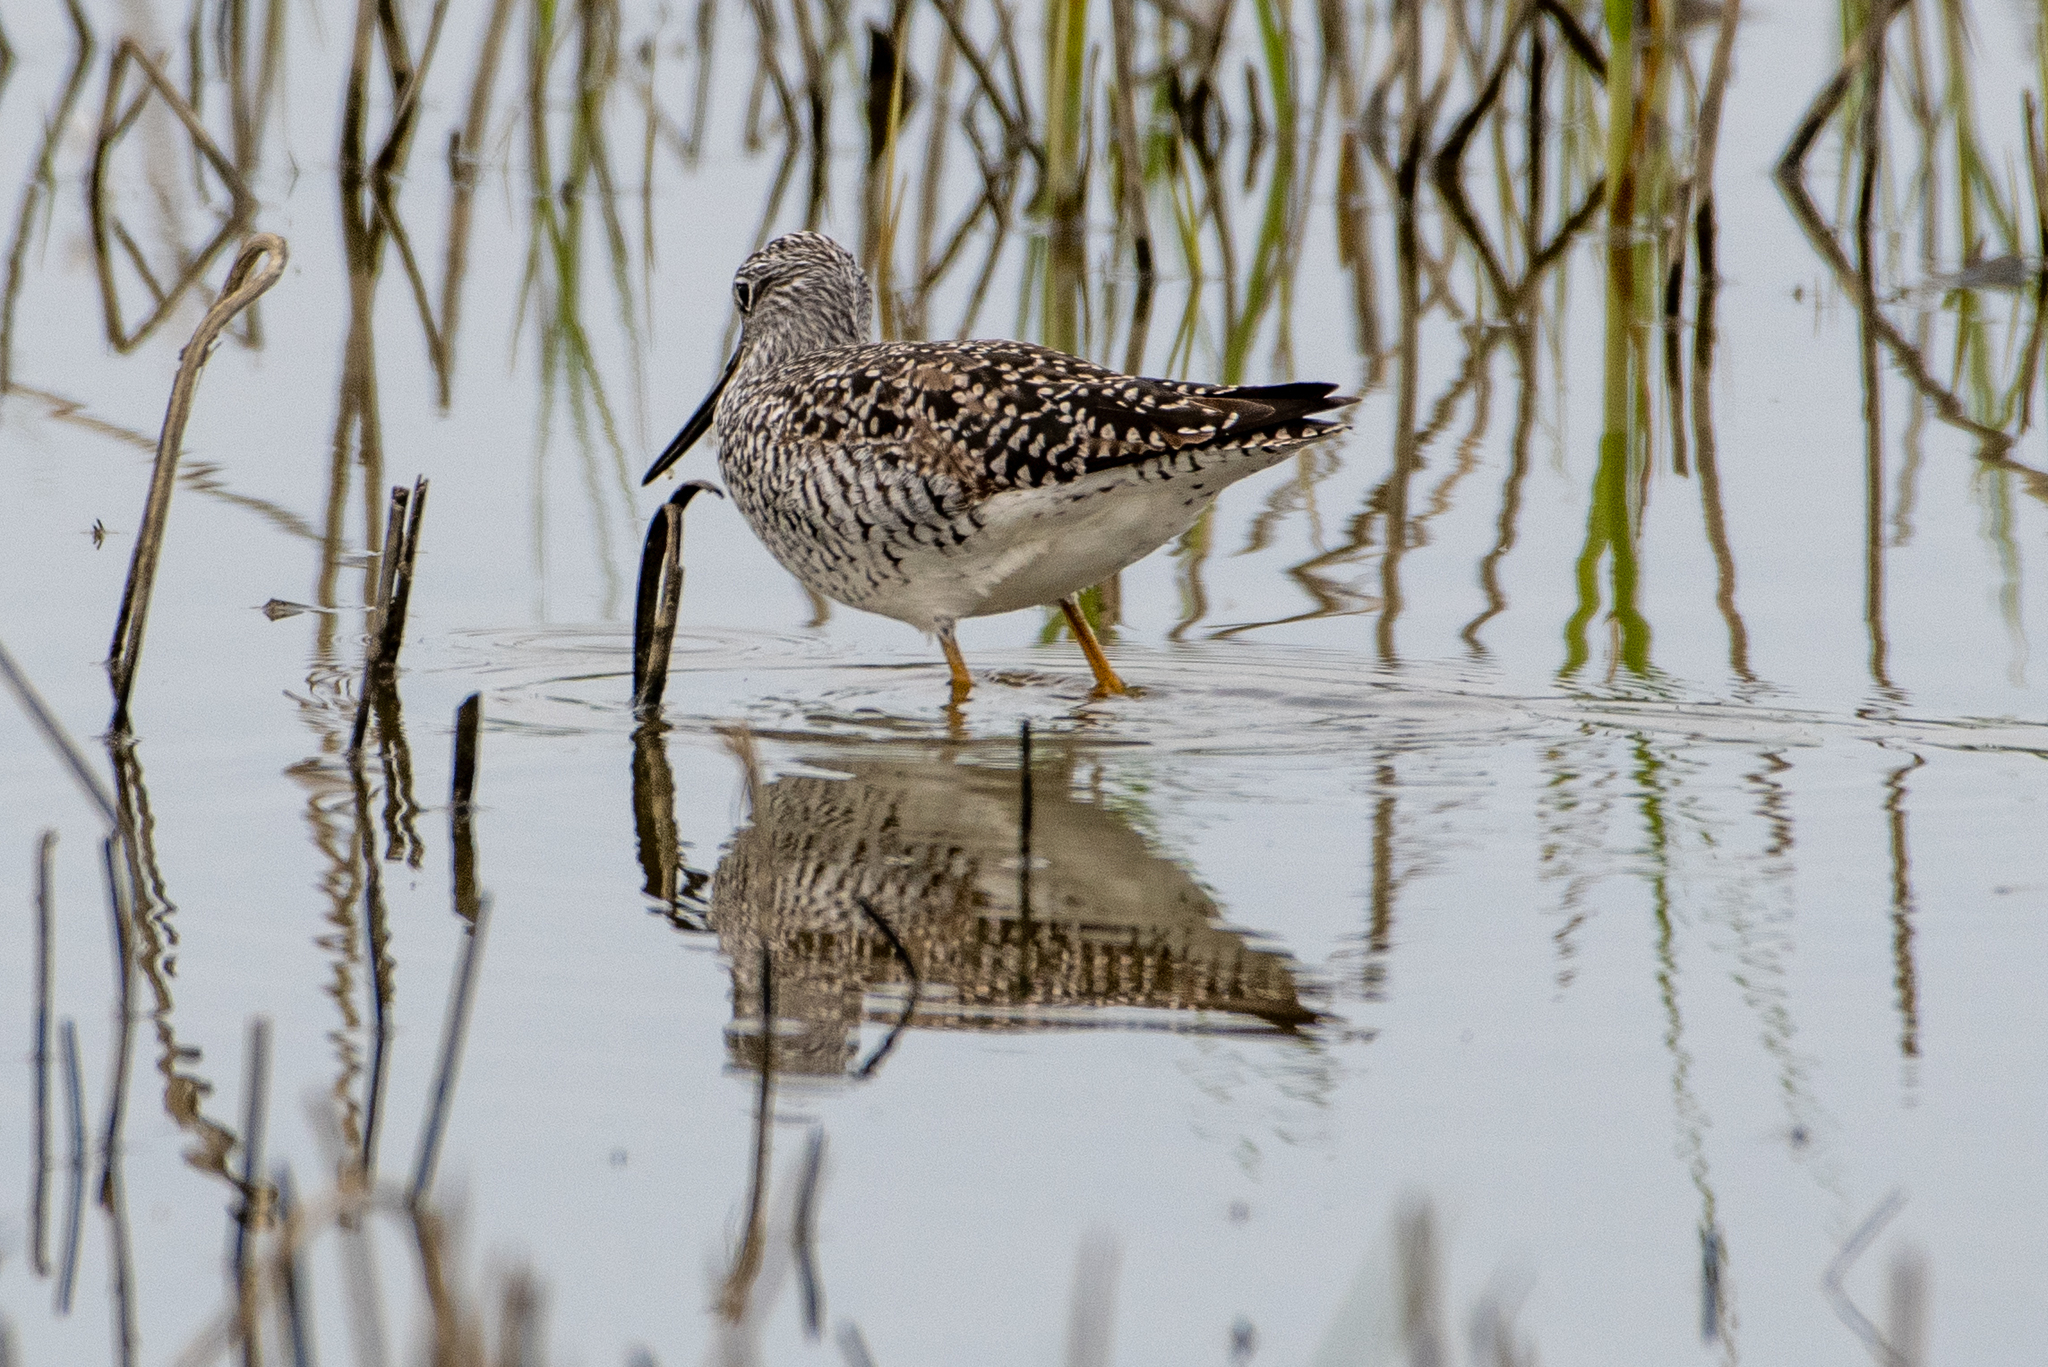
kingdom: Animalia
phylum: Chordata
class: Aves
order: Charadriiformes
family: Scolopacidae
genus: Tringa
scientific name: Tringa melanoleuca
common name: Greater yellowlegs
